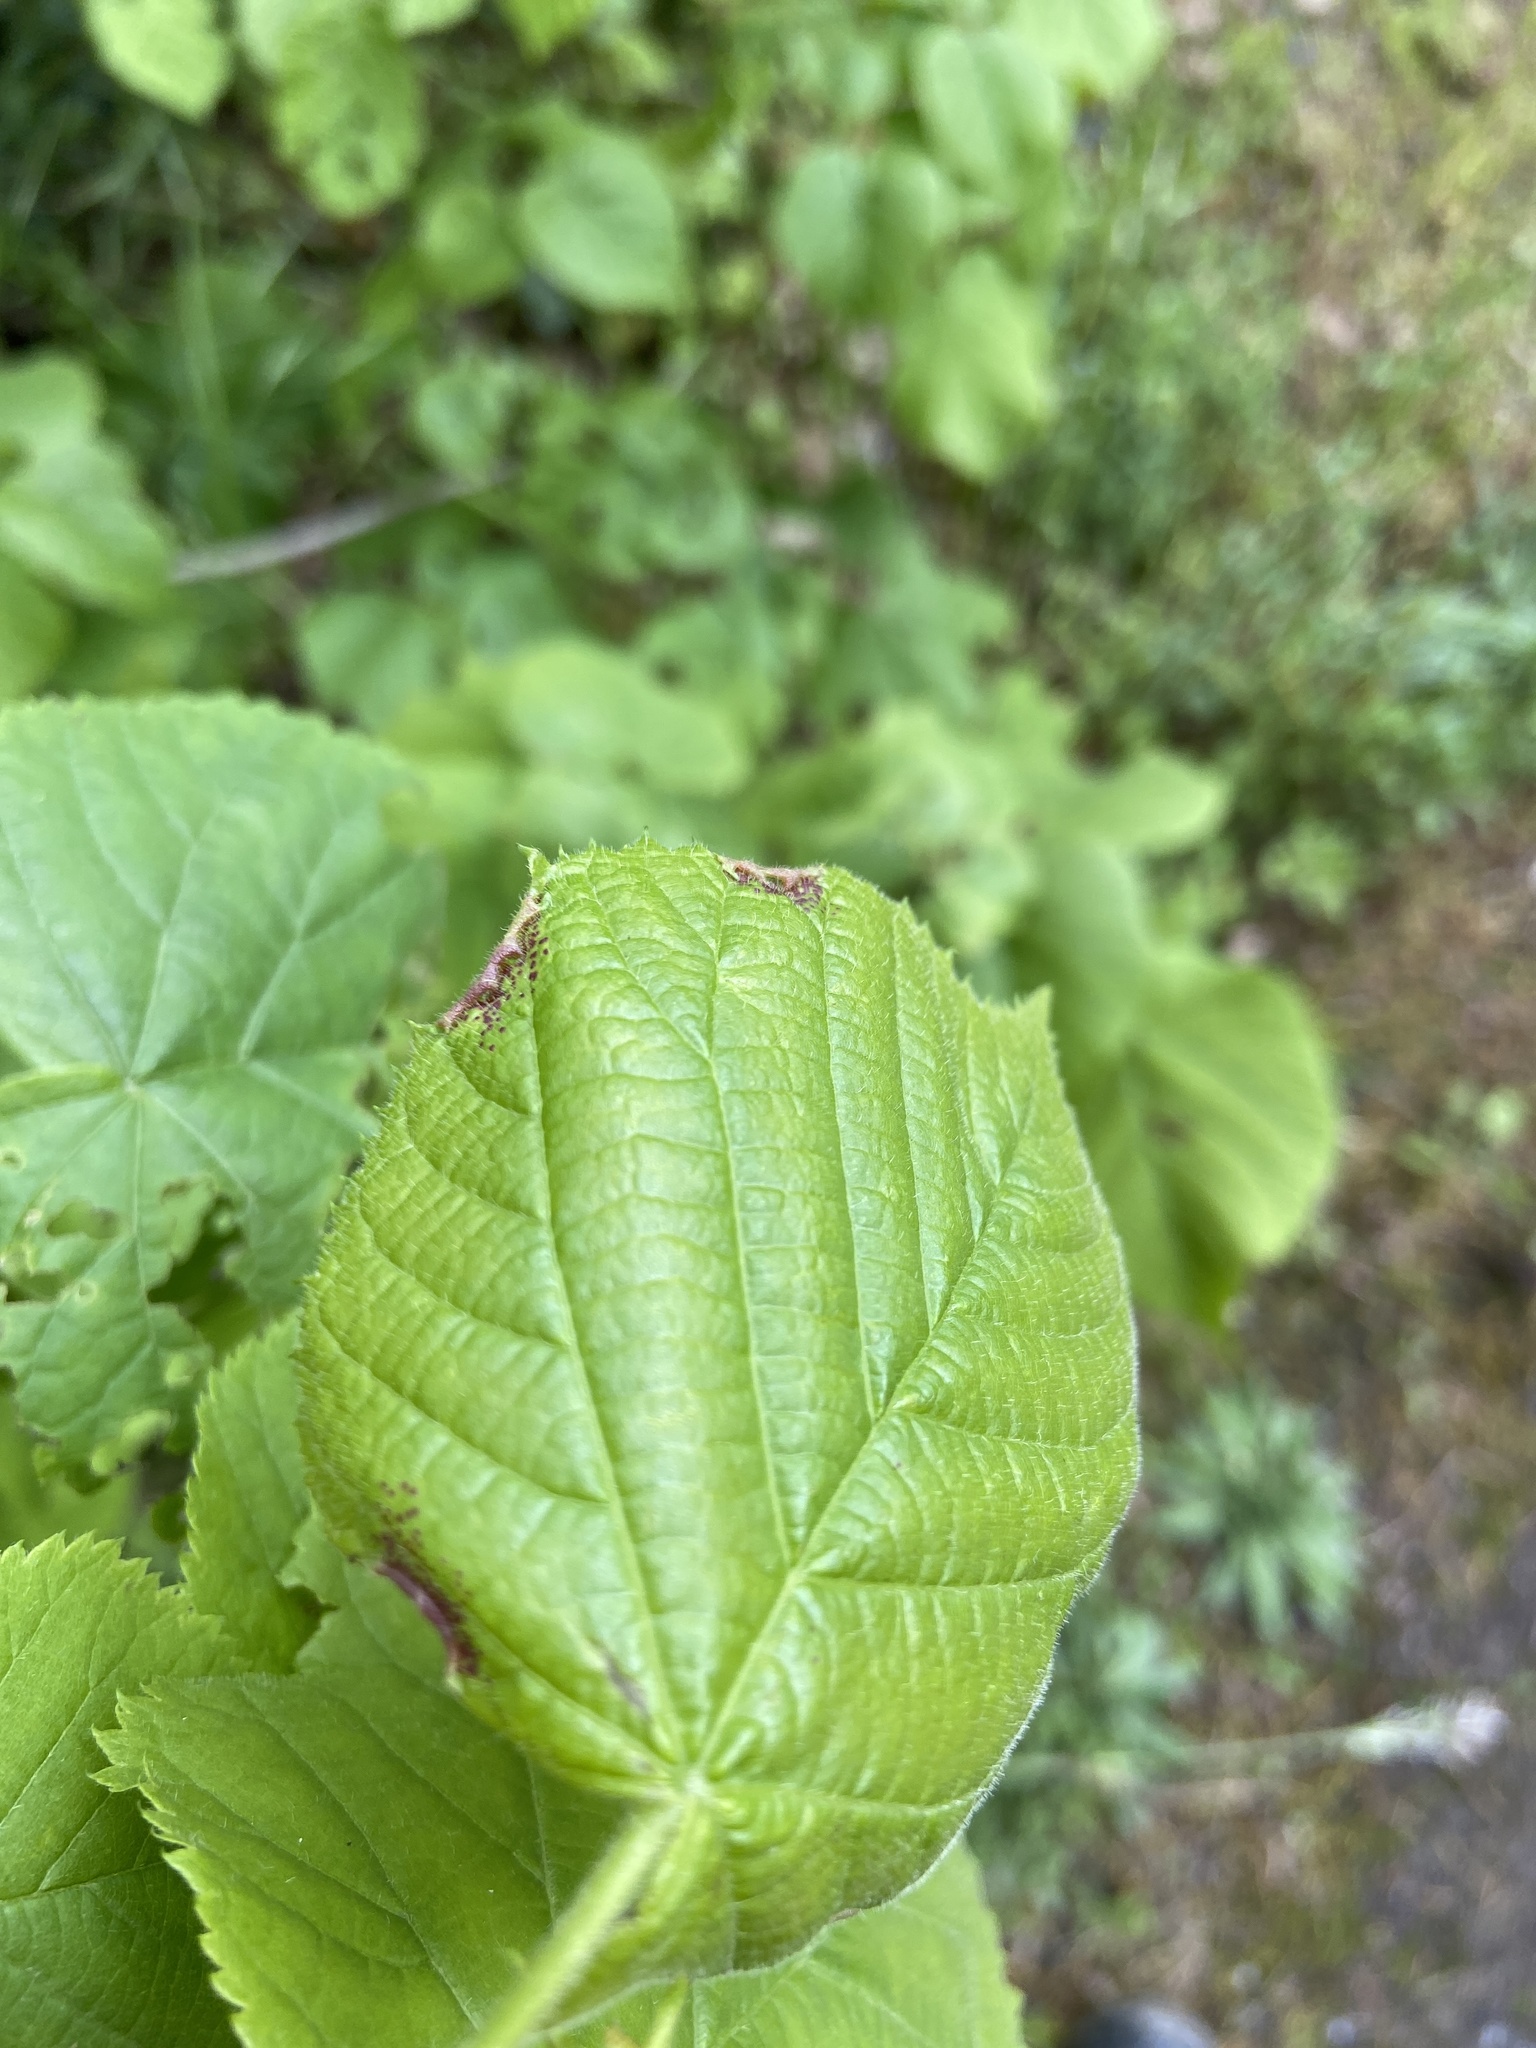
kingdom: Animalia
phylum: Arthropoda
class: Insecta
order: Diptera
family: Cecidomyiidae
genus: Dasineura
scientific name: Dasineura tiliae
